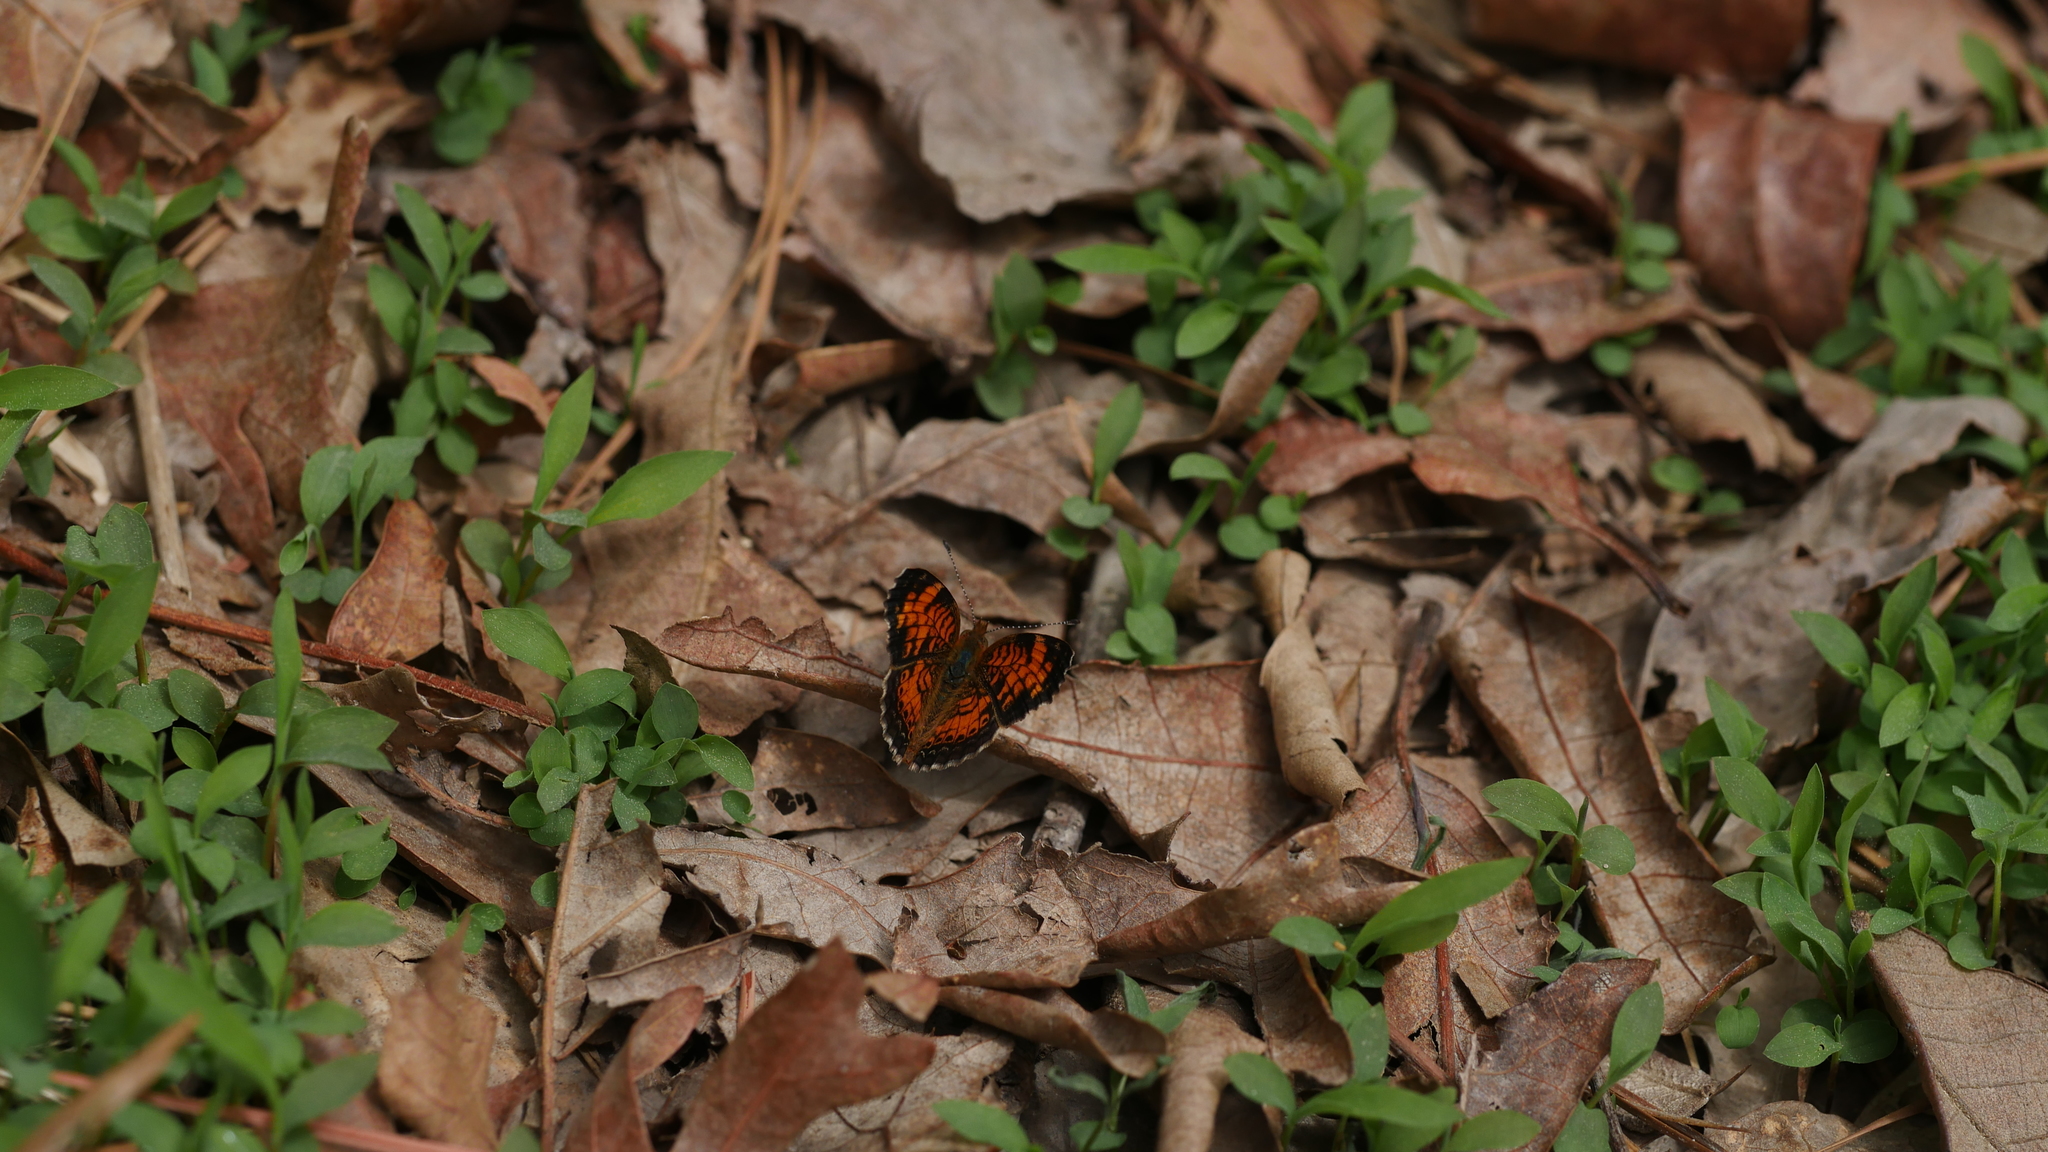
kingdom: Animalia
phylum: Arthropoda
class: Insecta
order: Lepidoptera
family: Nymphalidae
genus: Phyciodes
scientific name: Phyciodes tharos
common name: Pearl crescent
